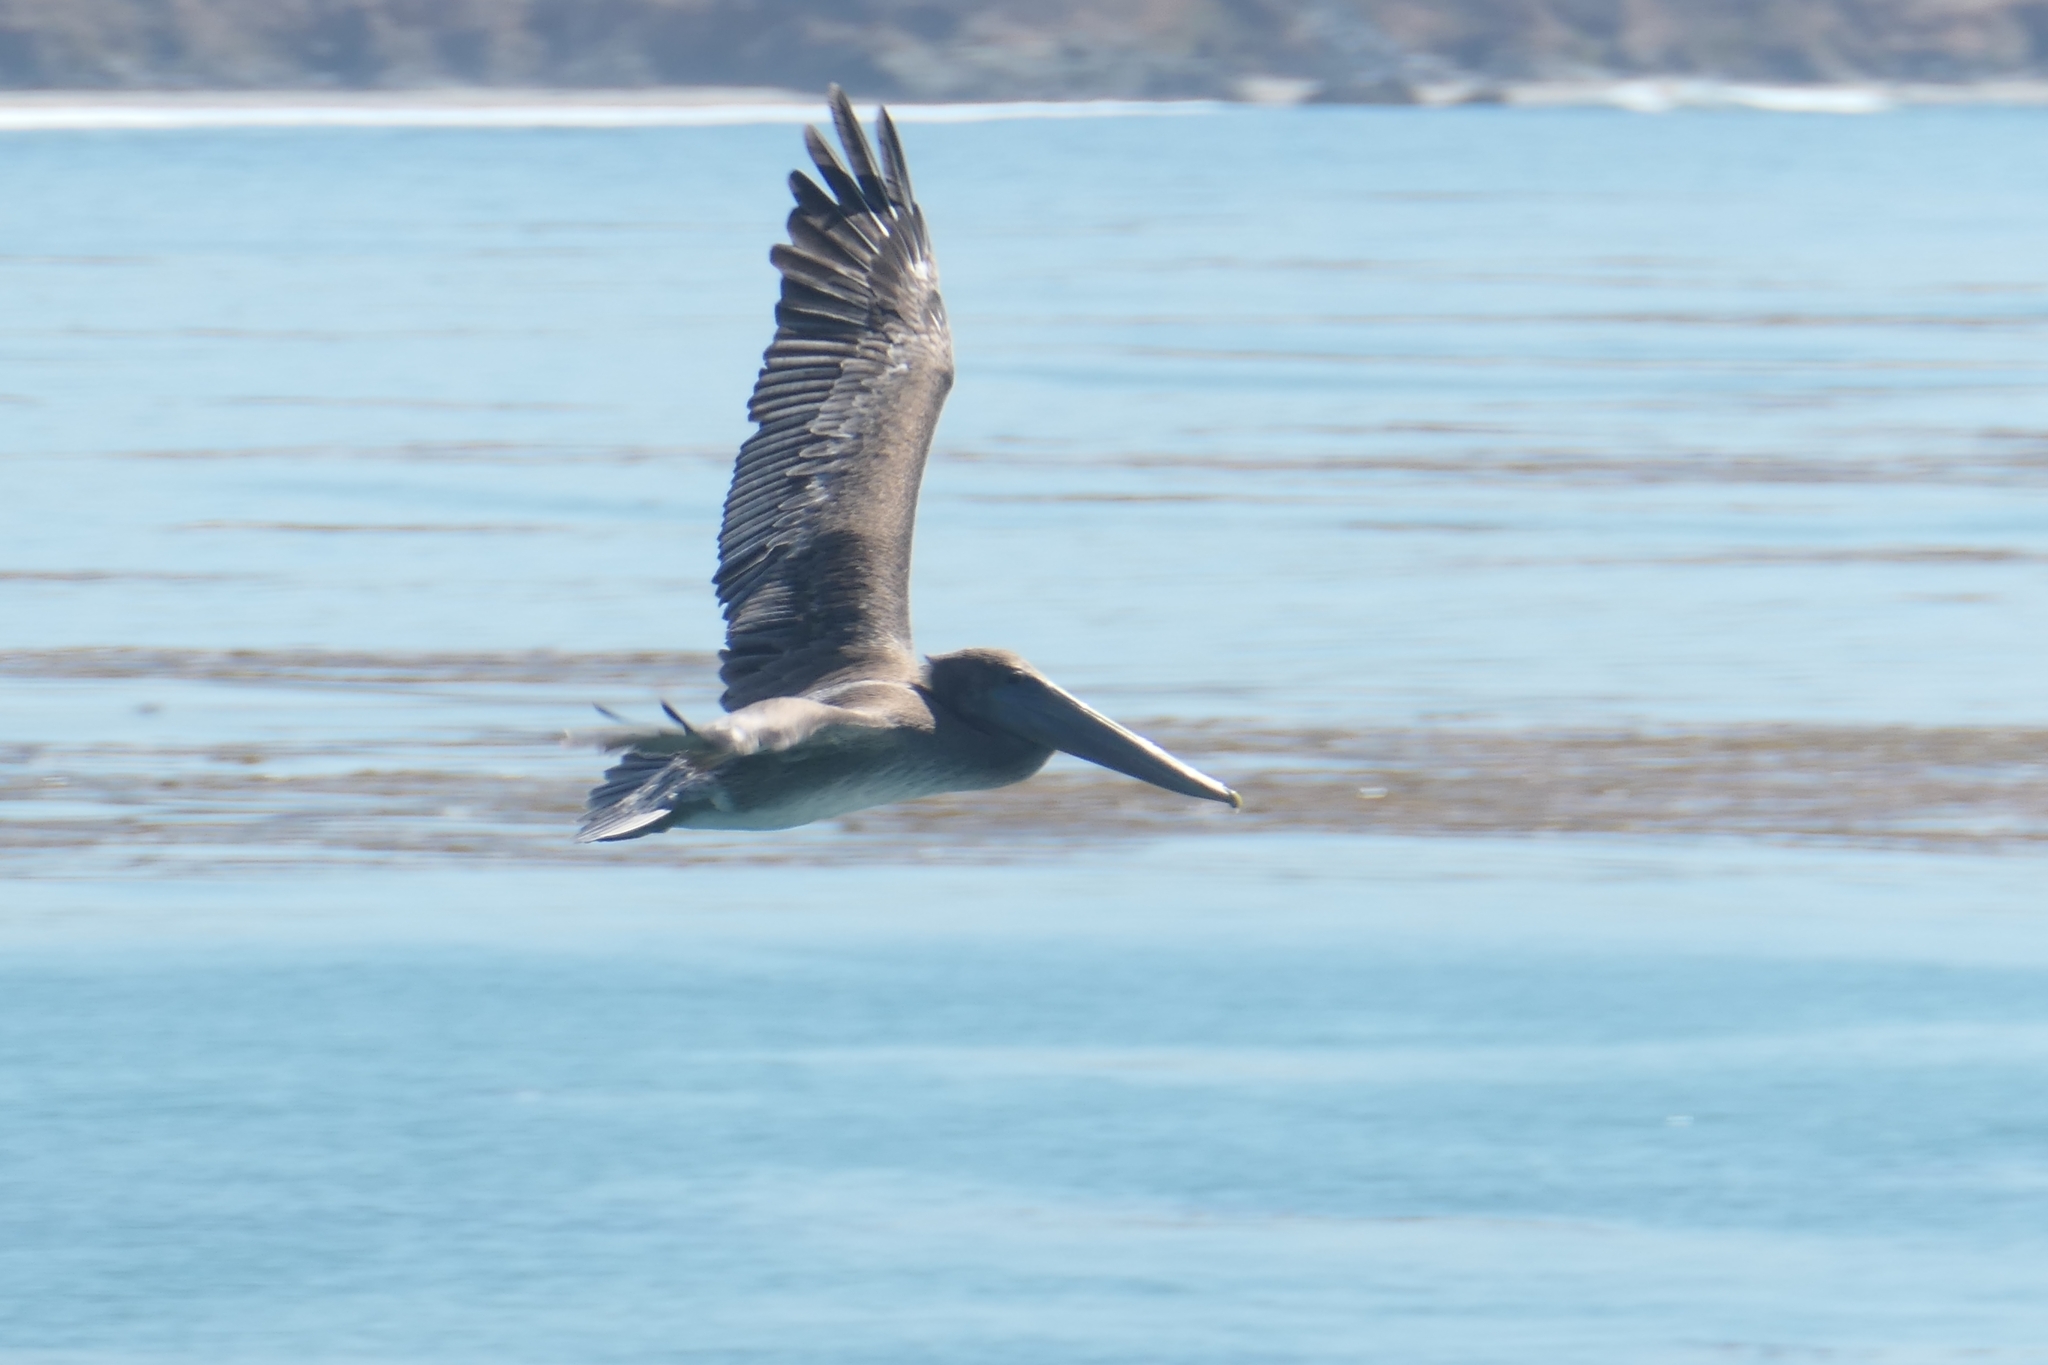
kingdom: Animalia
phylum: Chordata
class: Aves
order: Pelecaniformes
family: Pelecanidae
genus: Pelecanus
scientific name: Pelecanus occidentalis
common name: Brown pelican
